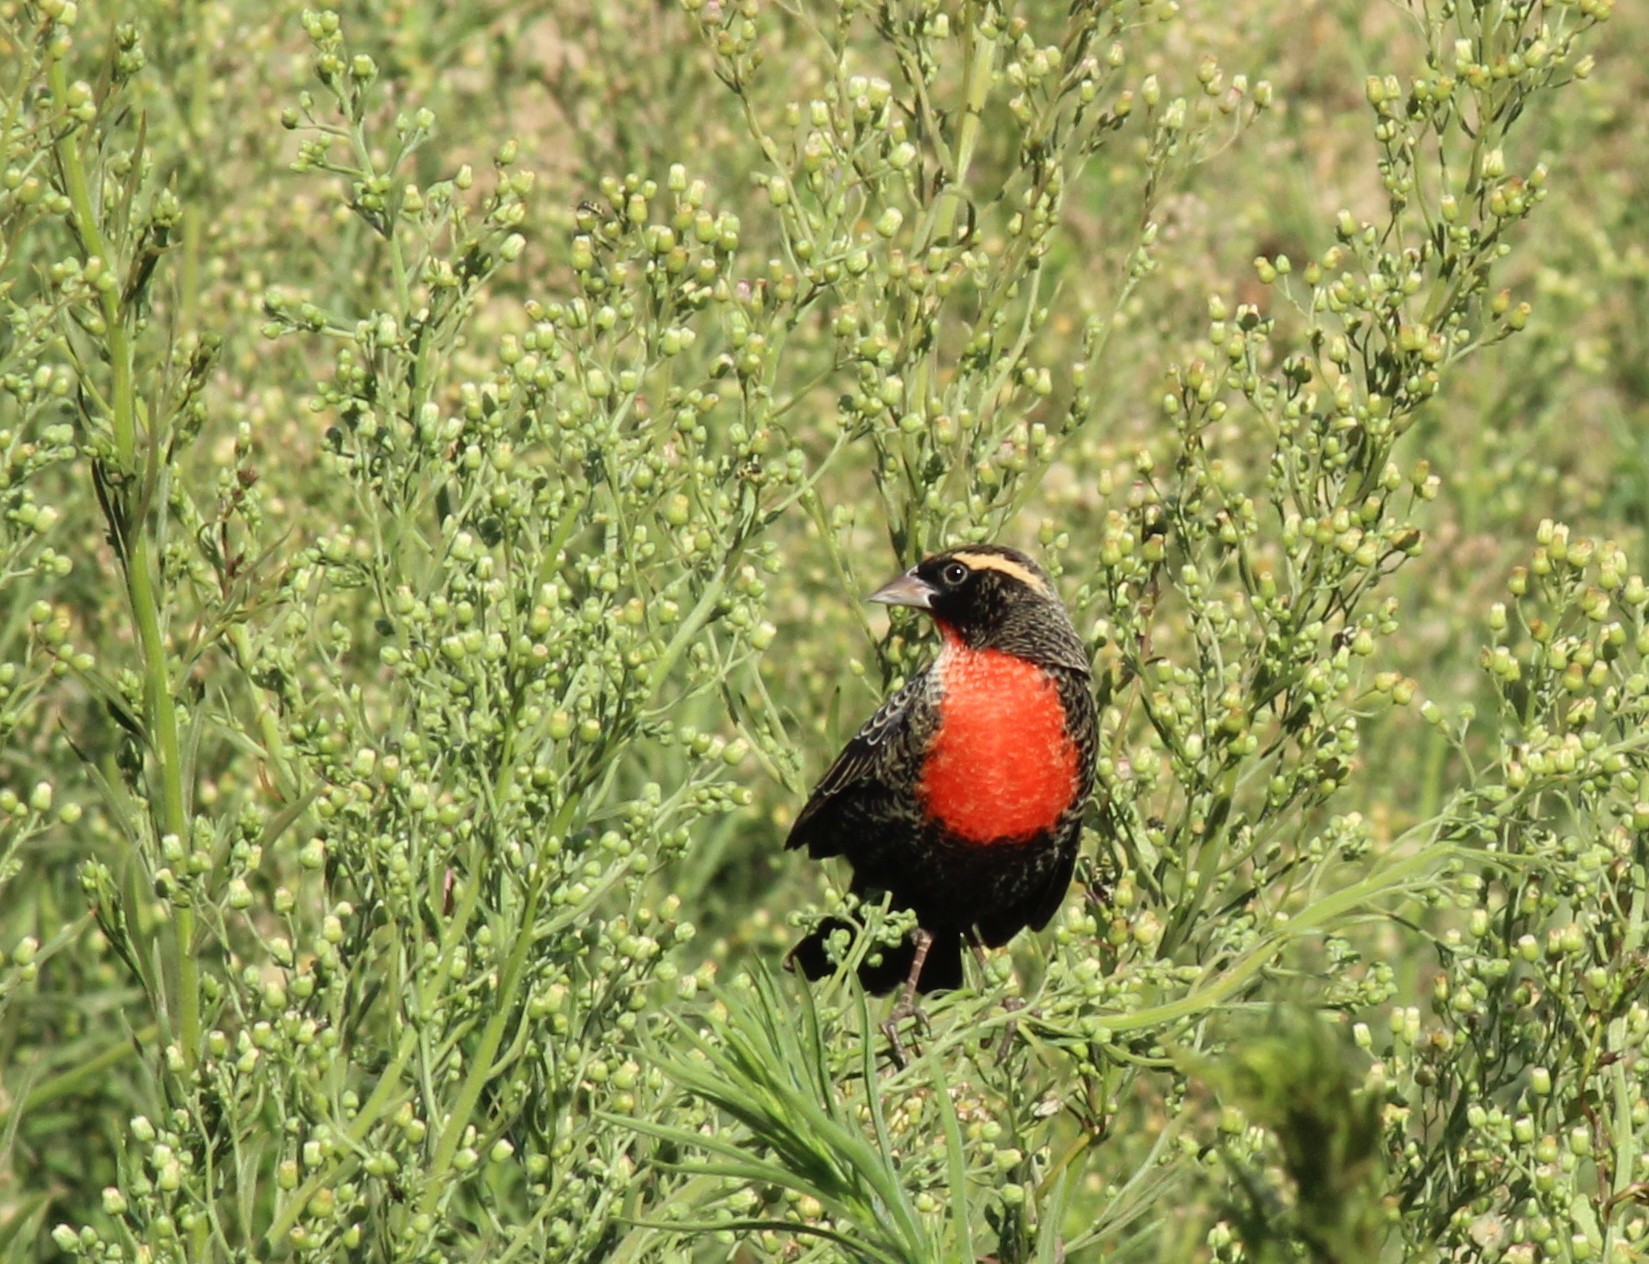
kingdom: Animalia
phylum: Chordata
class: Aves
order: Passeriformes
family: Icteridae
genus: Sturnella
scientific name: Sturnella superciliaris
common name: White-browed blackbird
